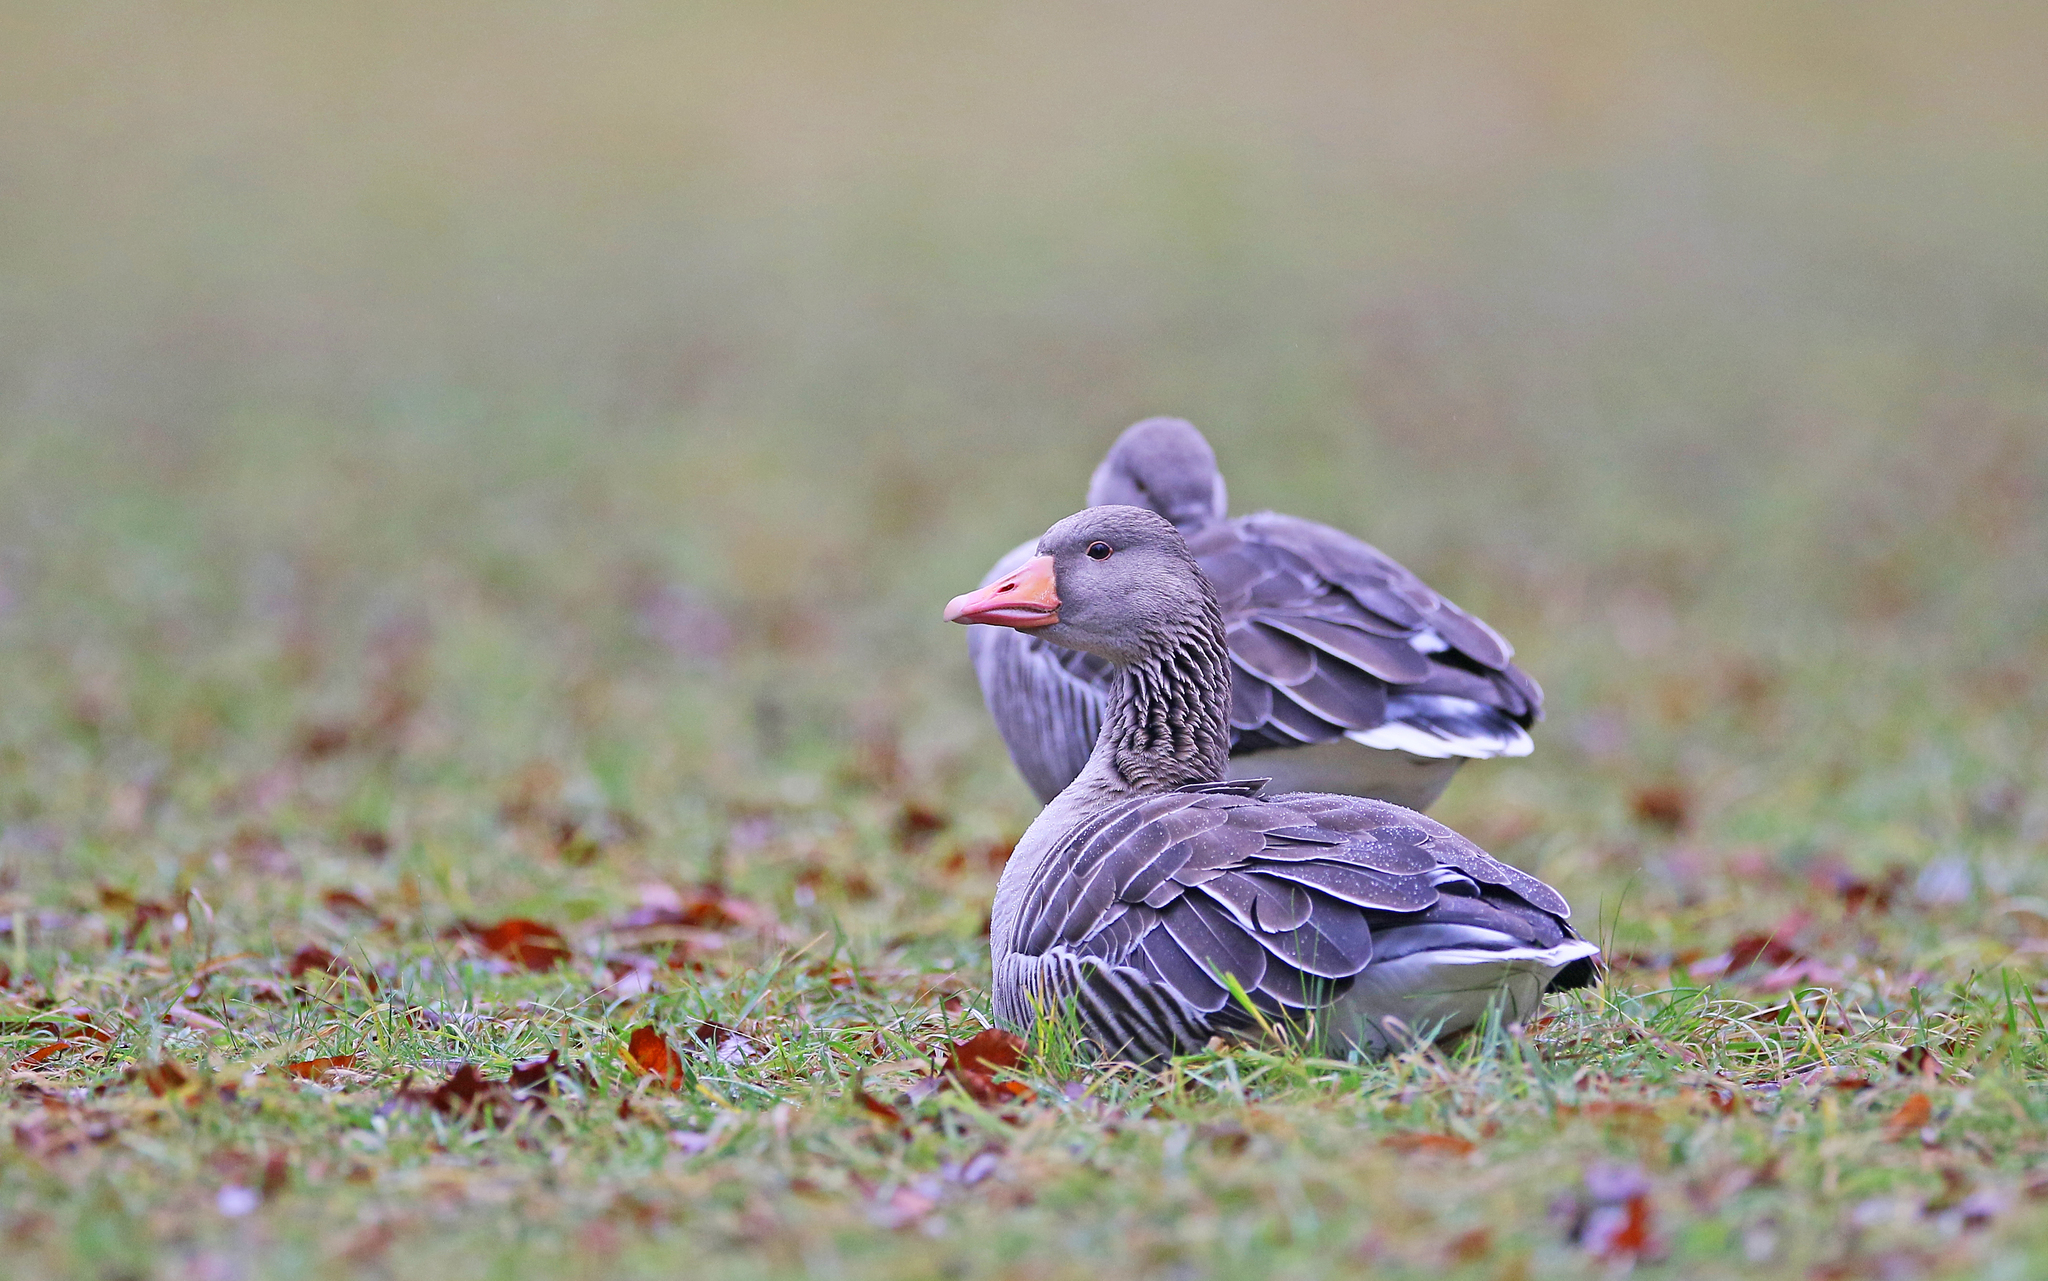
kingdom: Animalia
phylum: Chordata
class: Aves
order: Anseriformes
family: Anatidae
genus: Anser
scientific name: Anser anser
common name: Greylag goose
